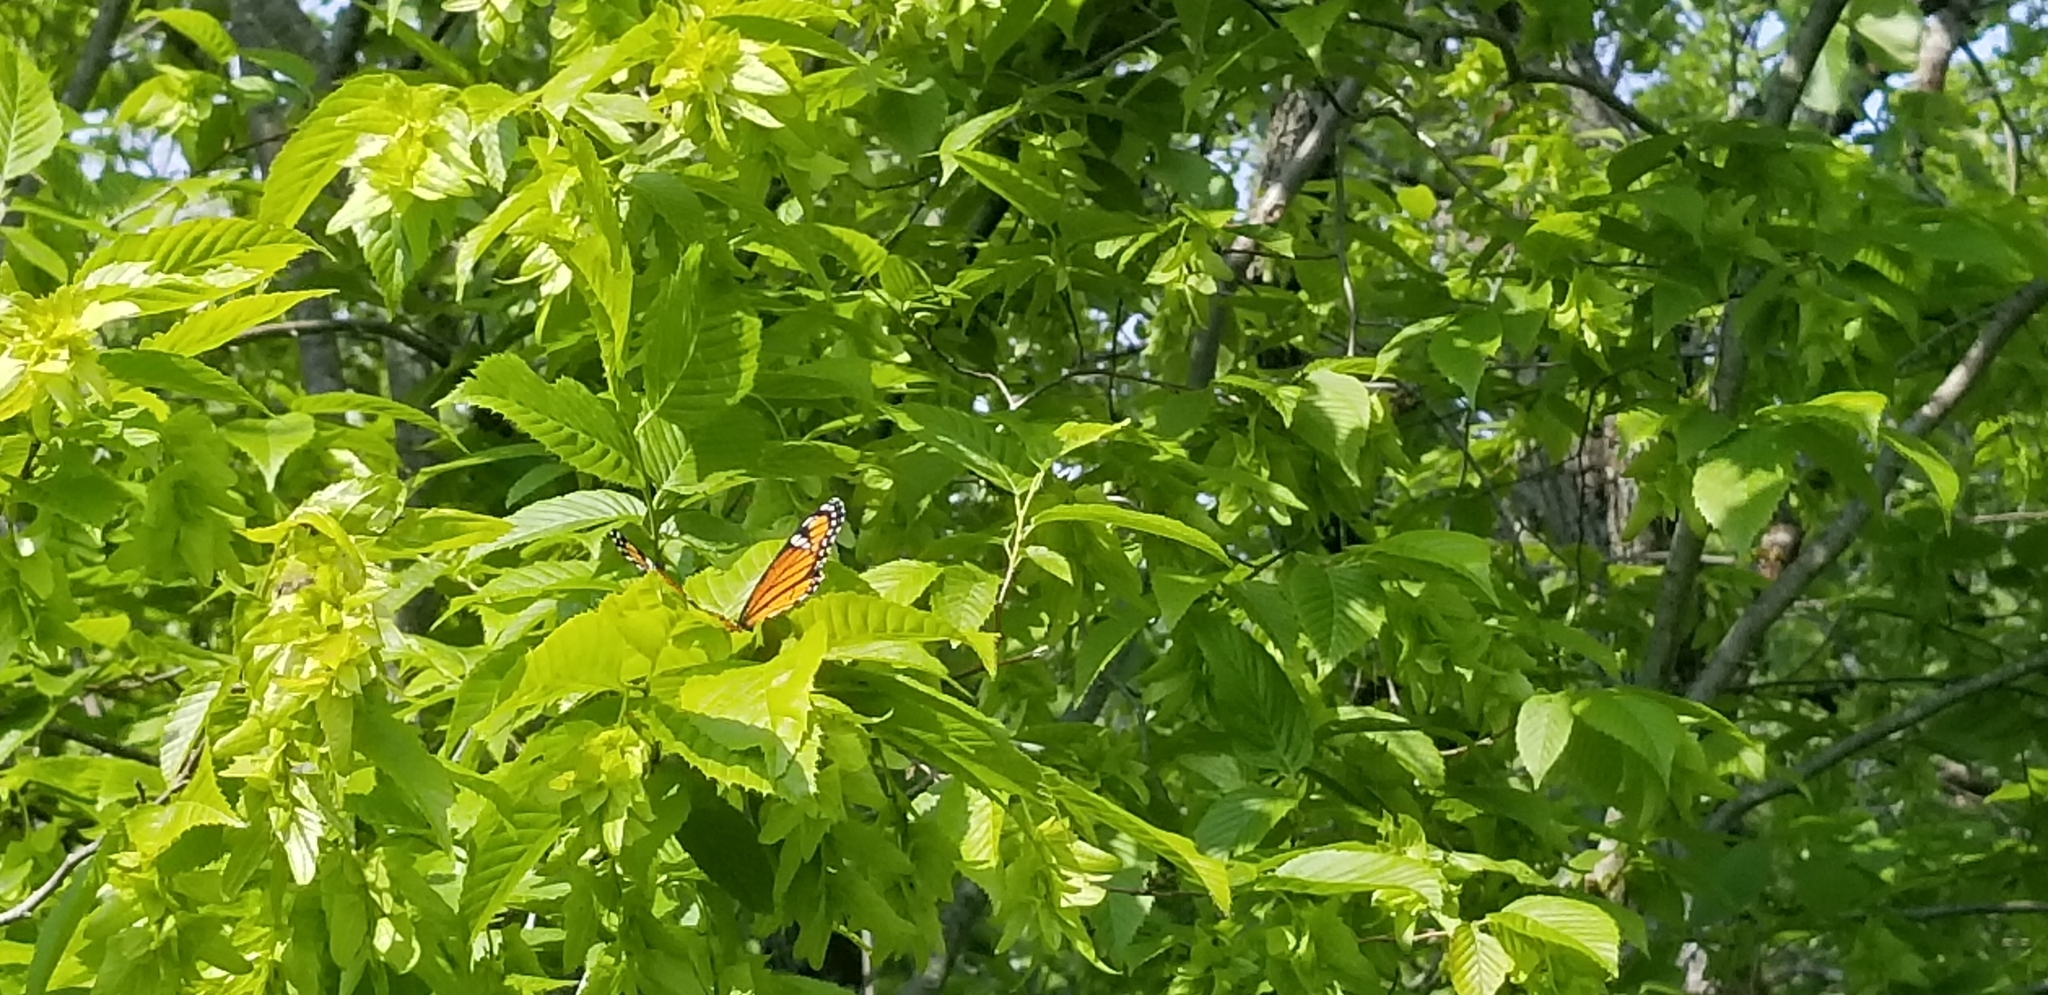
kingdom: Animalia
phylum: Arthropoda
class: Insecta
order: Lepidoptera
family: Nymphalidae
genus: Limenitis
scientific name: Limenitis archippus
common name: Viceroy
